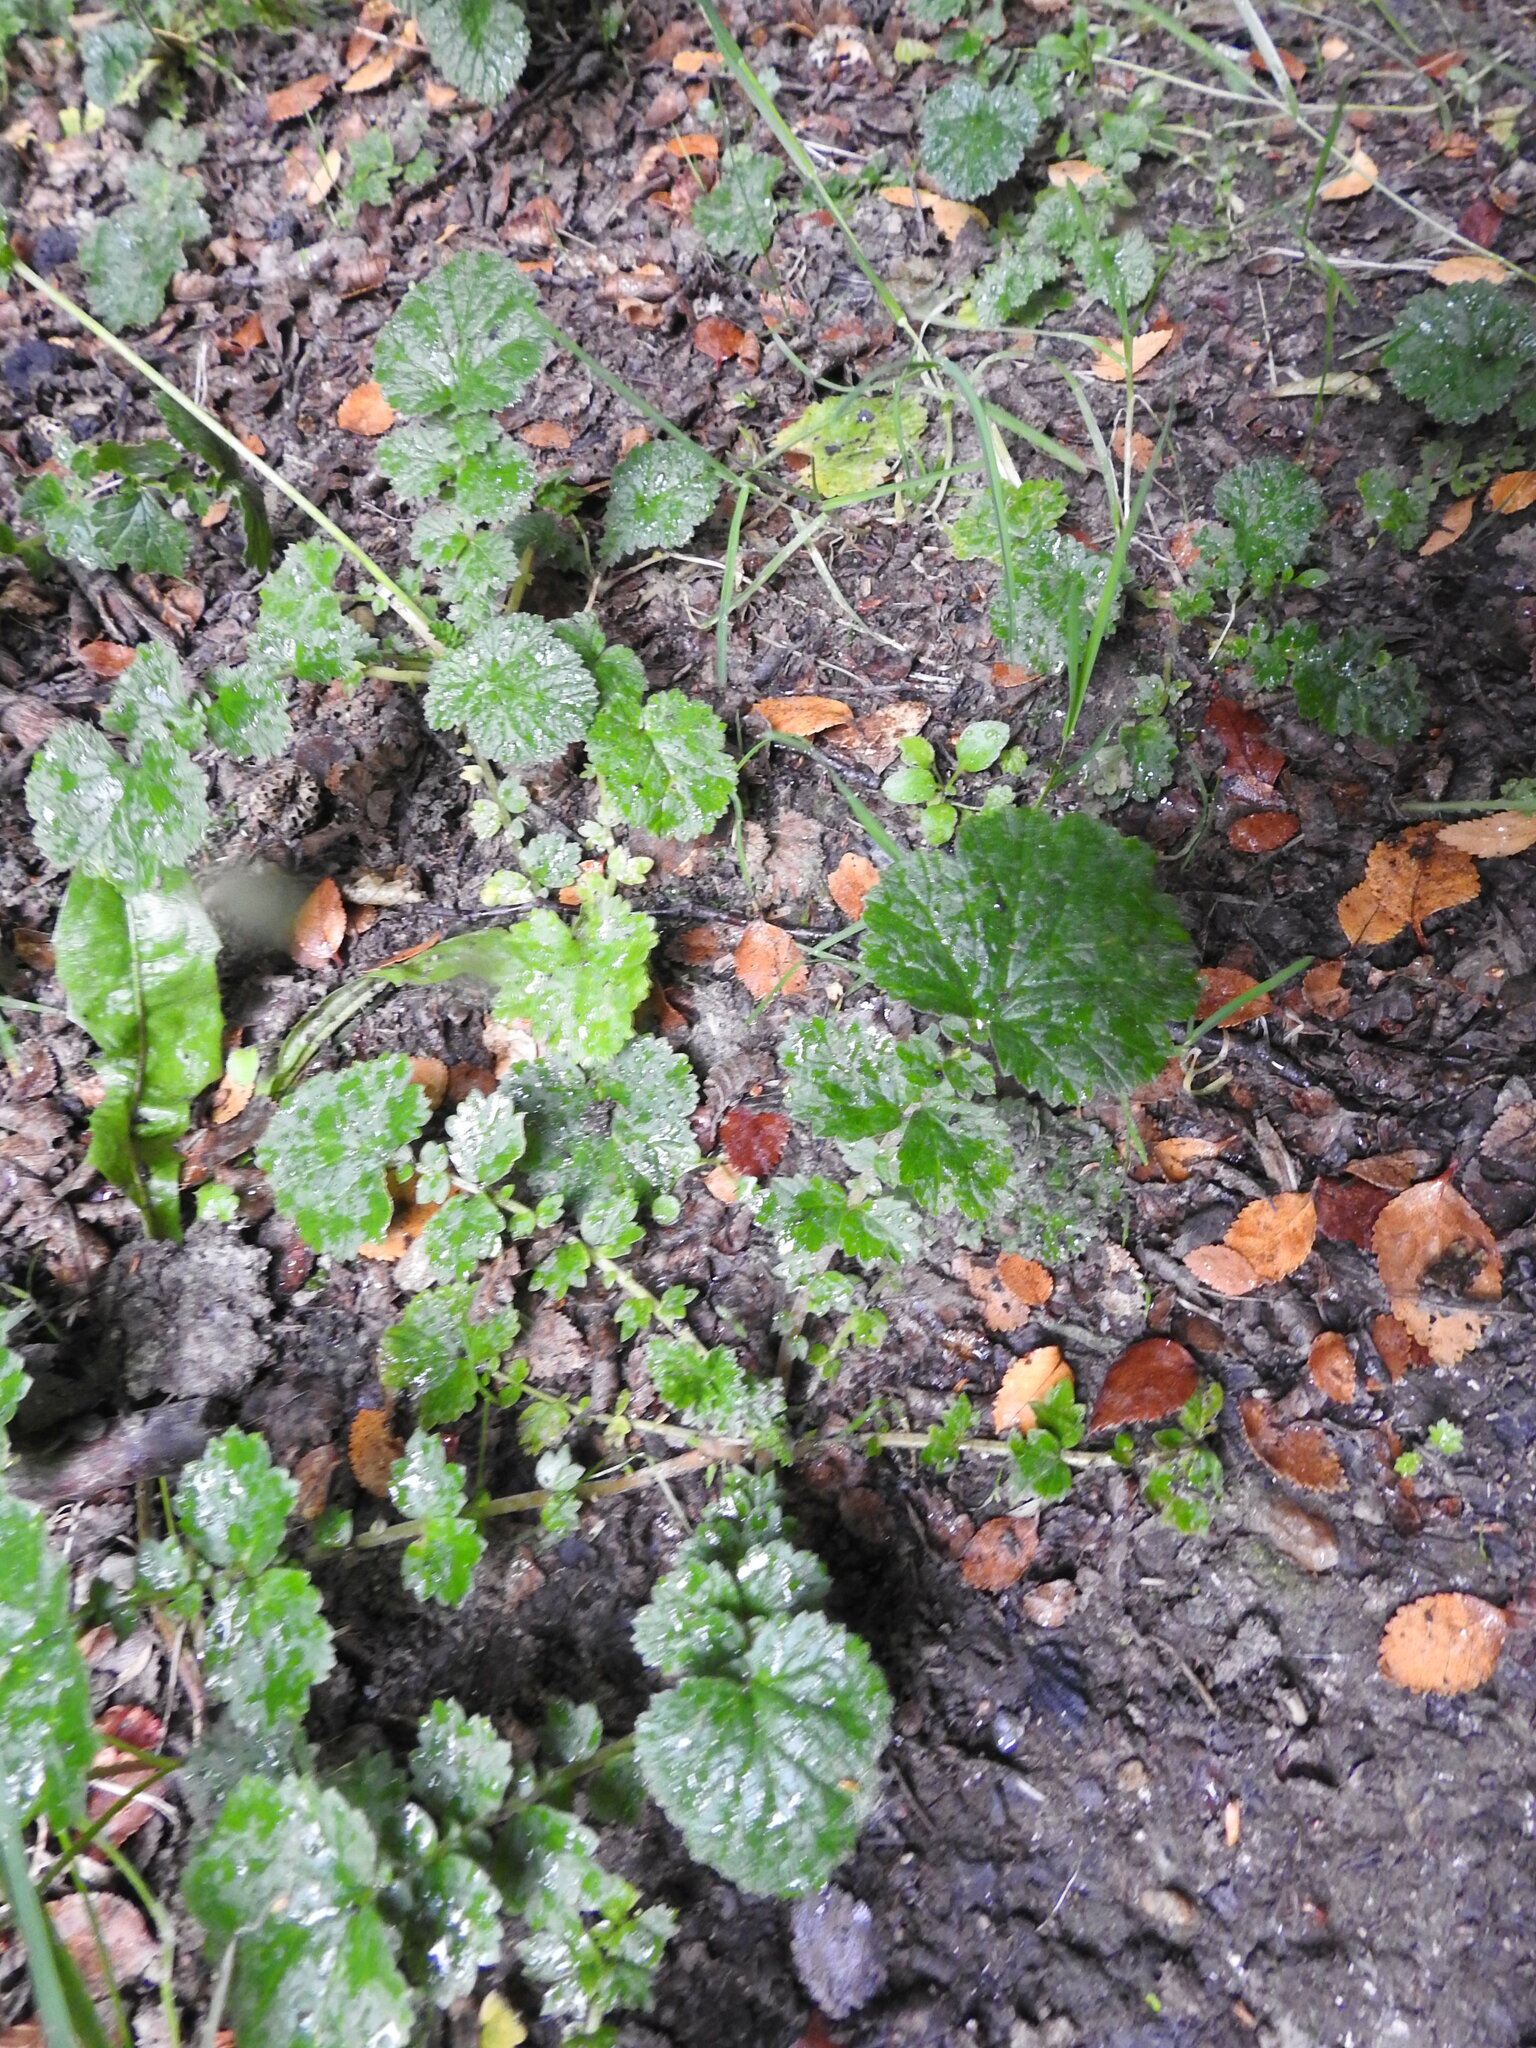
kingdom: Plantae
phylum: Tracheophyta
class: Magnoliopsida
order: Rosales
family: Rosaceae
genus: Geum
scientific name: Geum magellanicum
